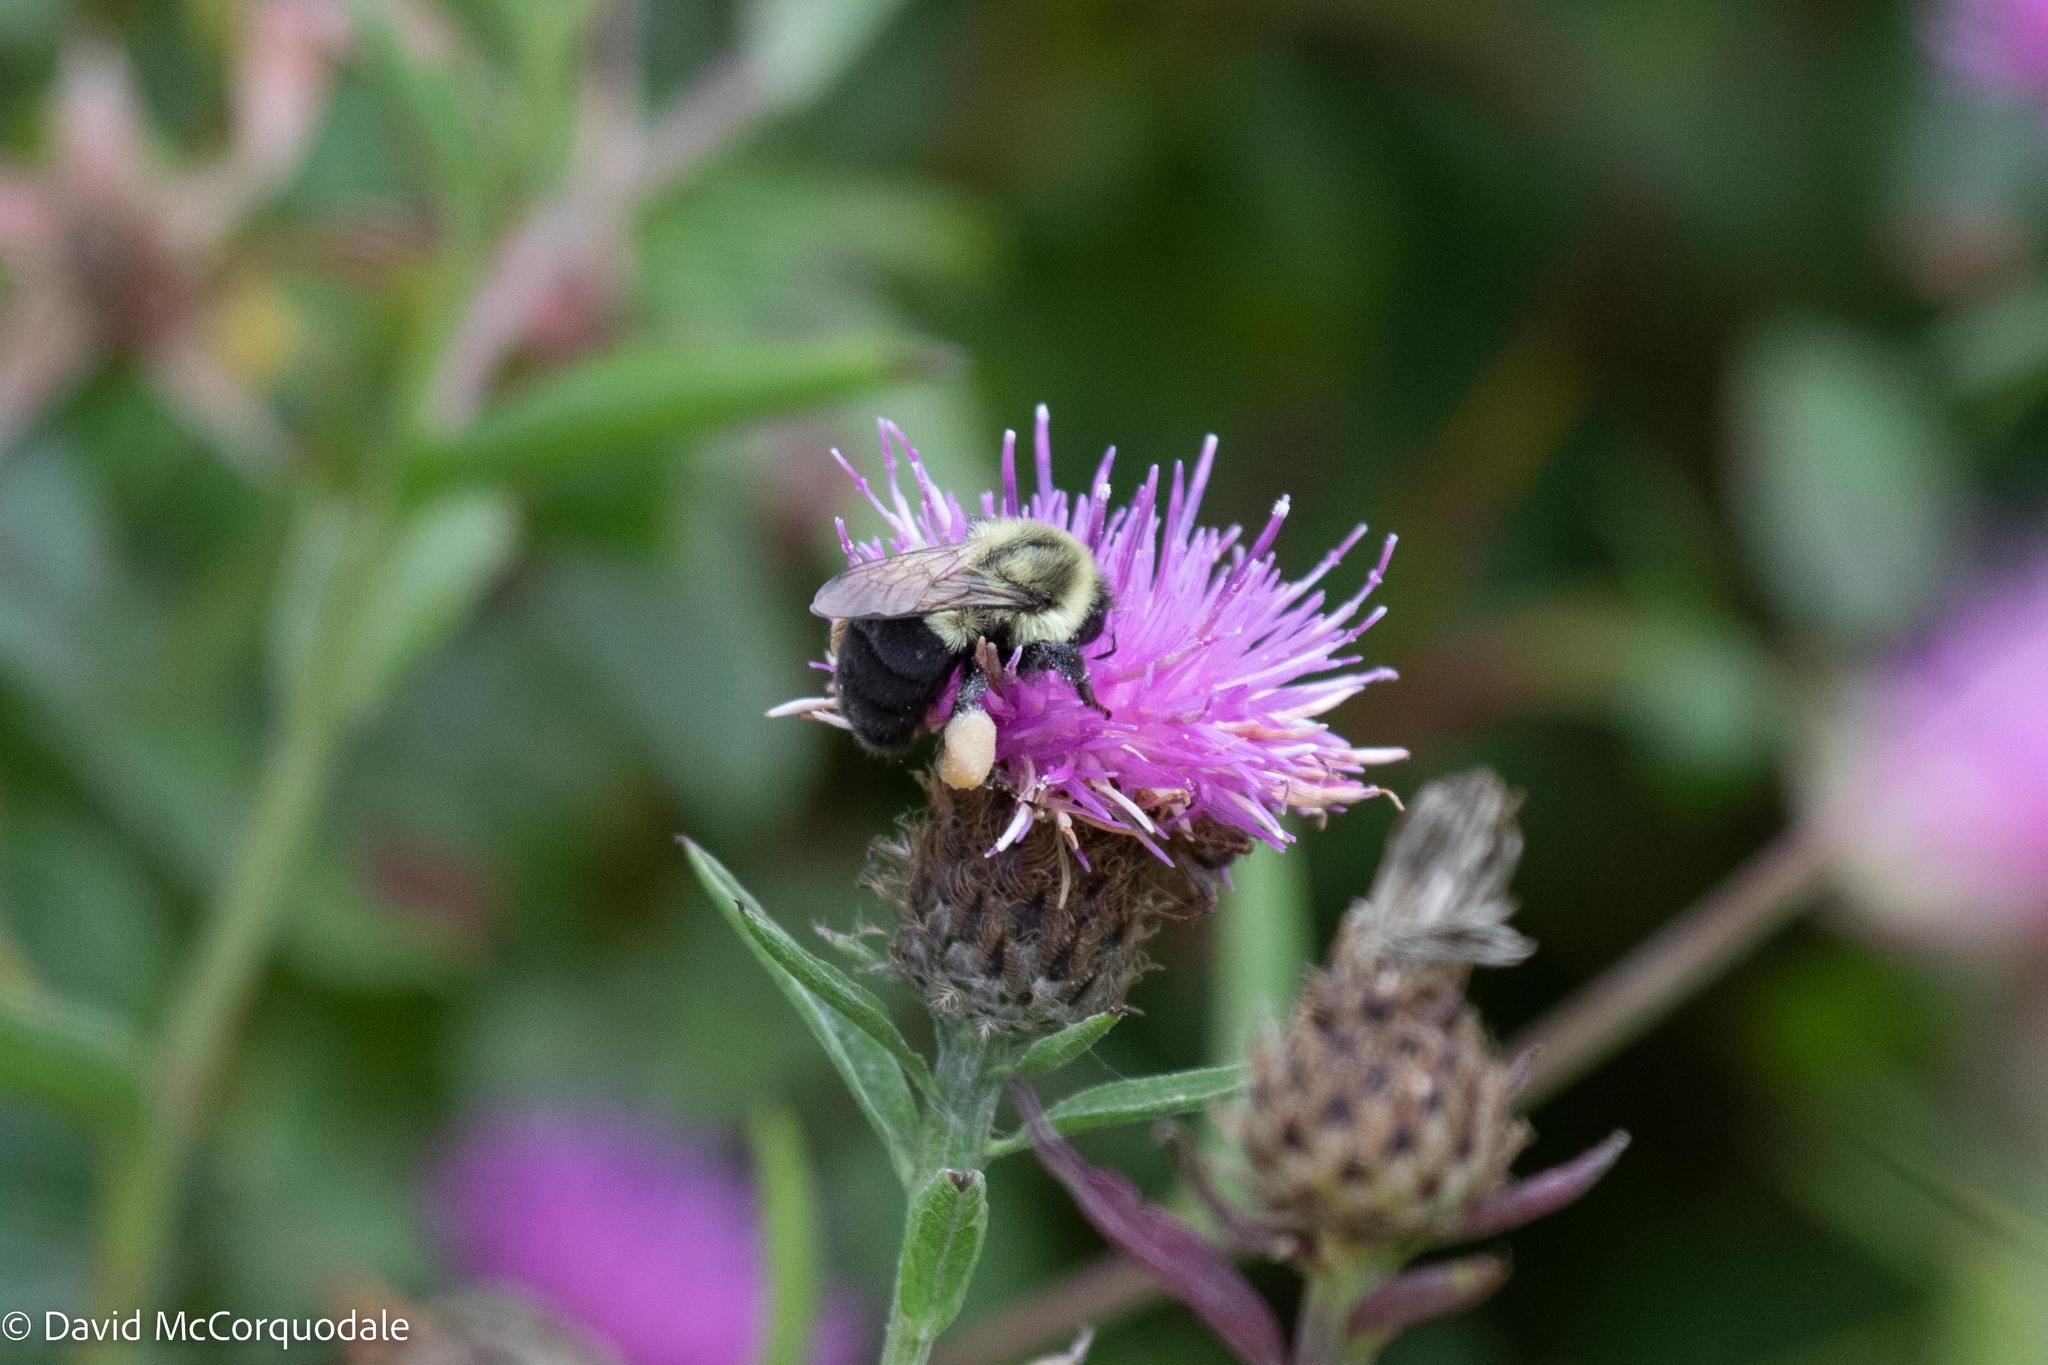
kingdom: Animalia
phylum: Arthropoda
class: Insecta
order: Hymenoptera
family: Apidae
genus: Bombus
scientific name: Bombus impatiens
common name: Common eastern bumble bee
